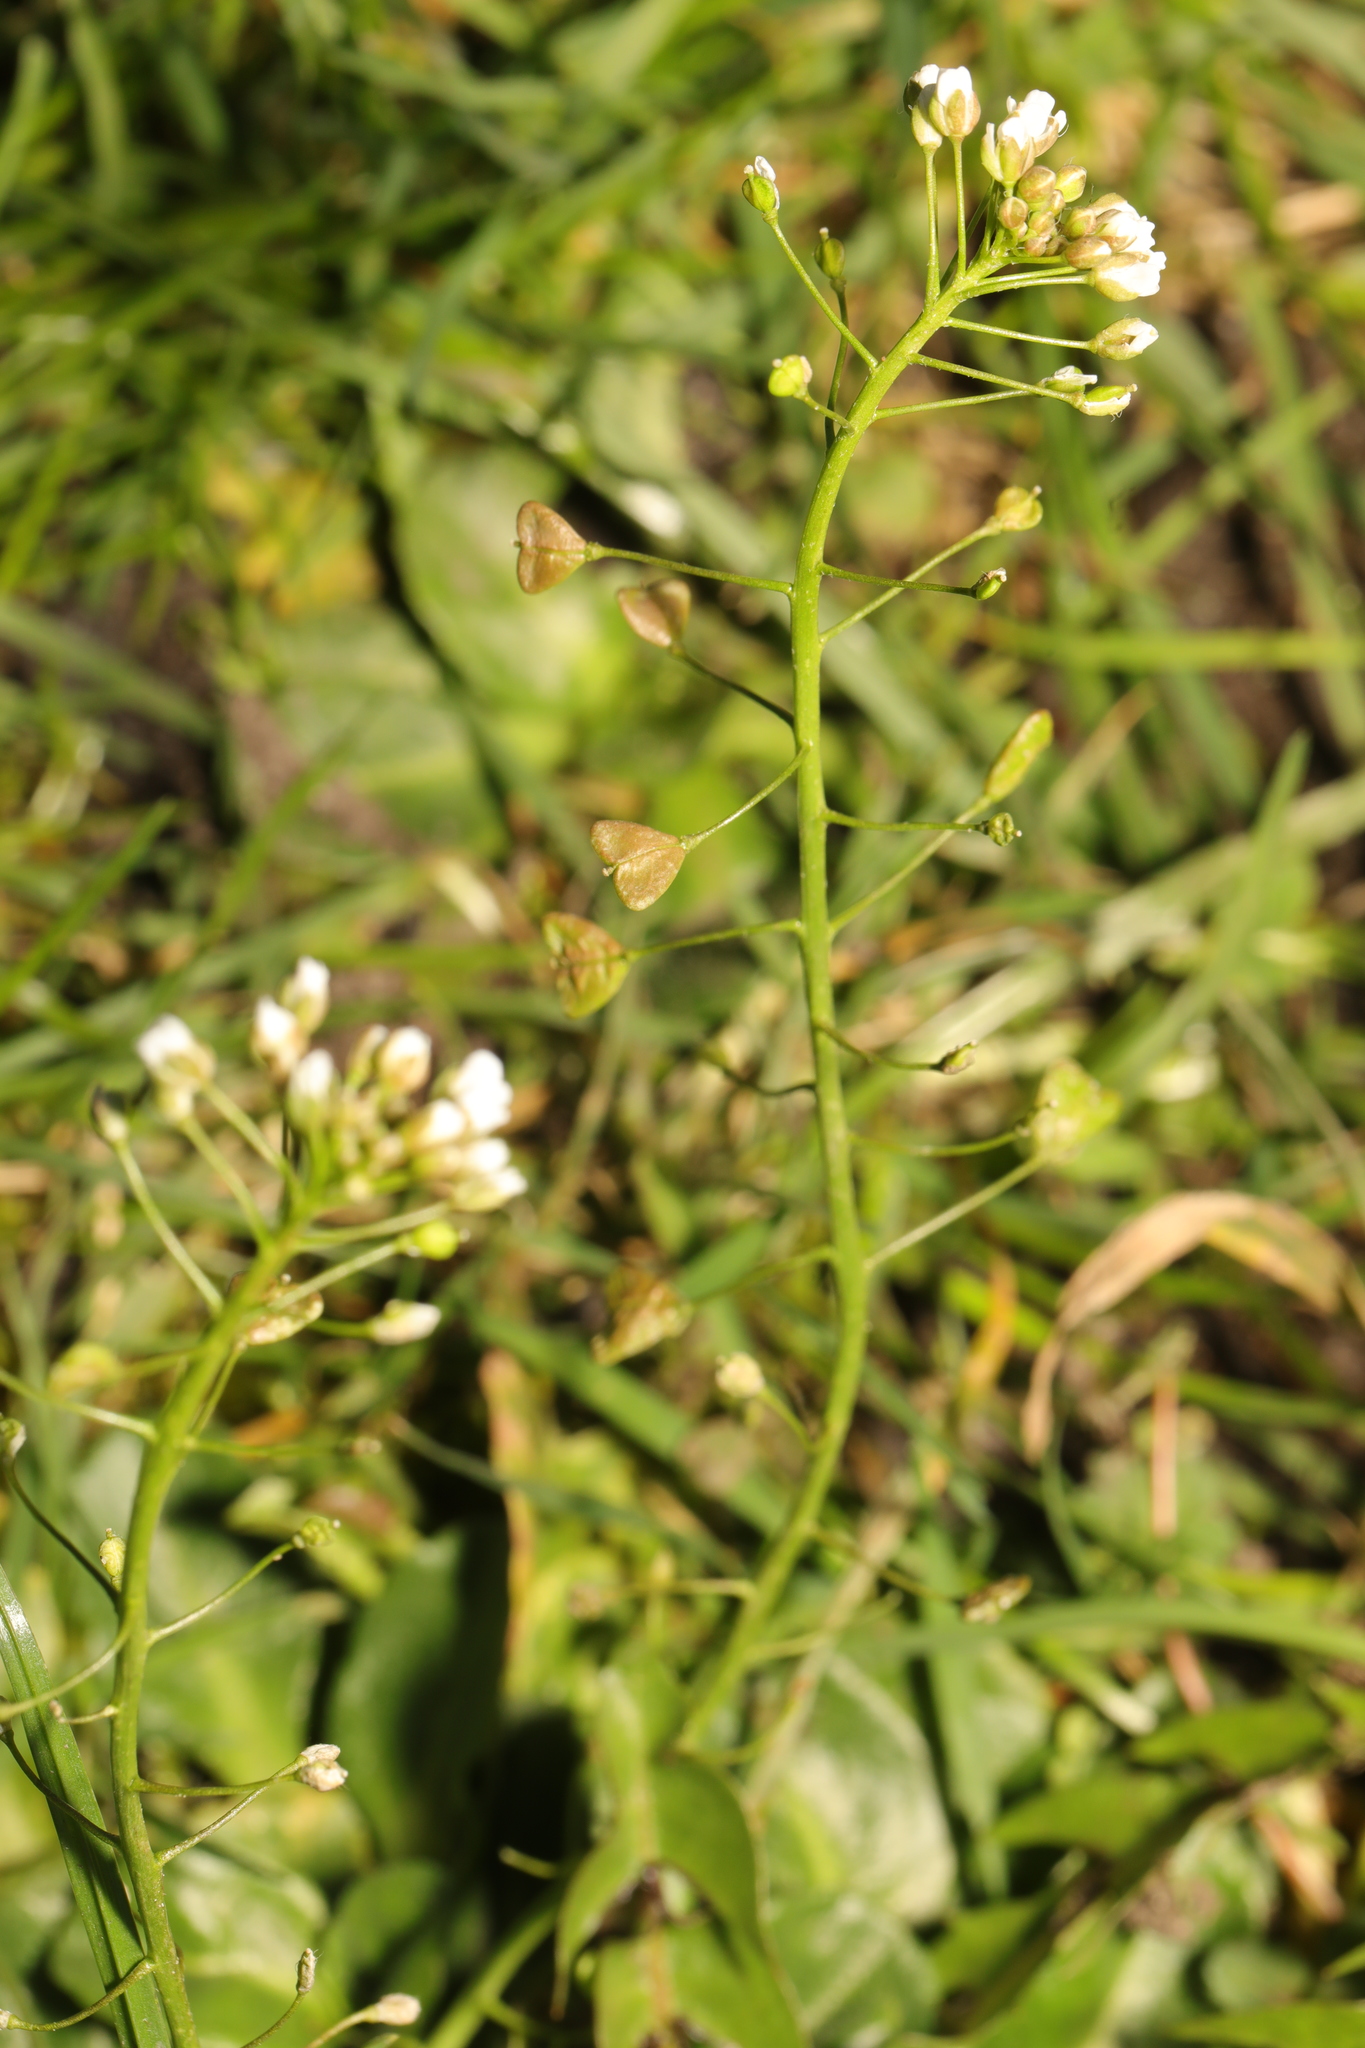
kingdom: Plantae
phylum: Tracheophyta
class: Magnoliopsida
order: Brassicales
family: Brassicaceae
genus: Capsella
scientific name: Capsella bursa-pastoris
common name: Shepherd's purse
